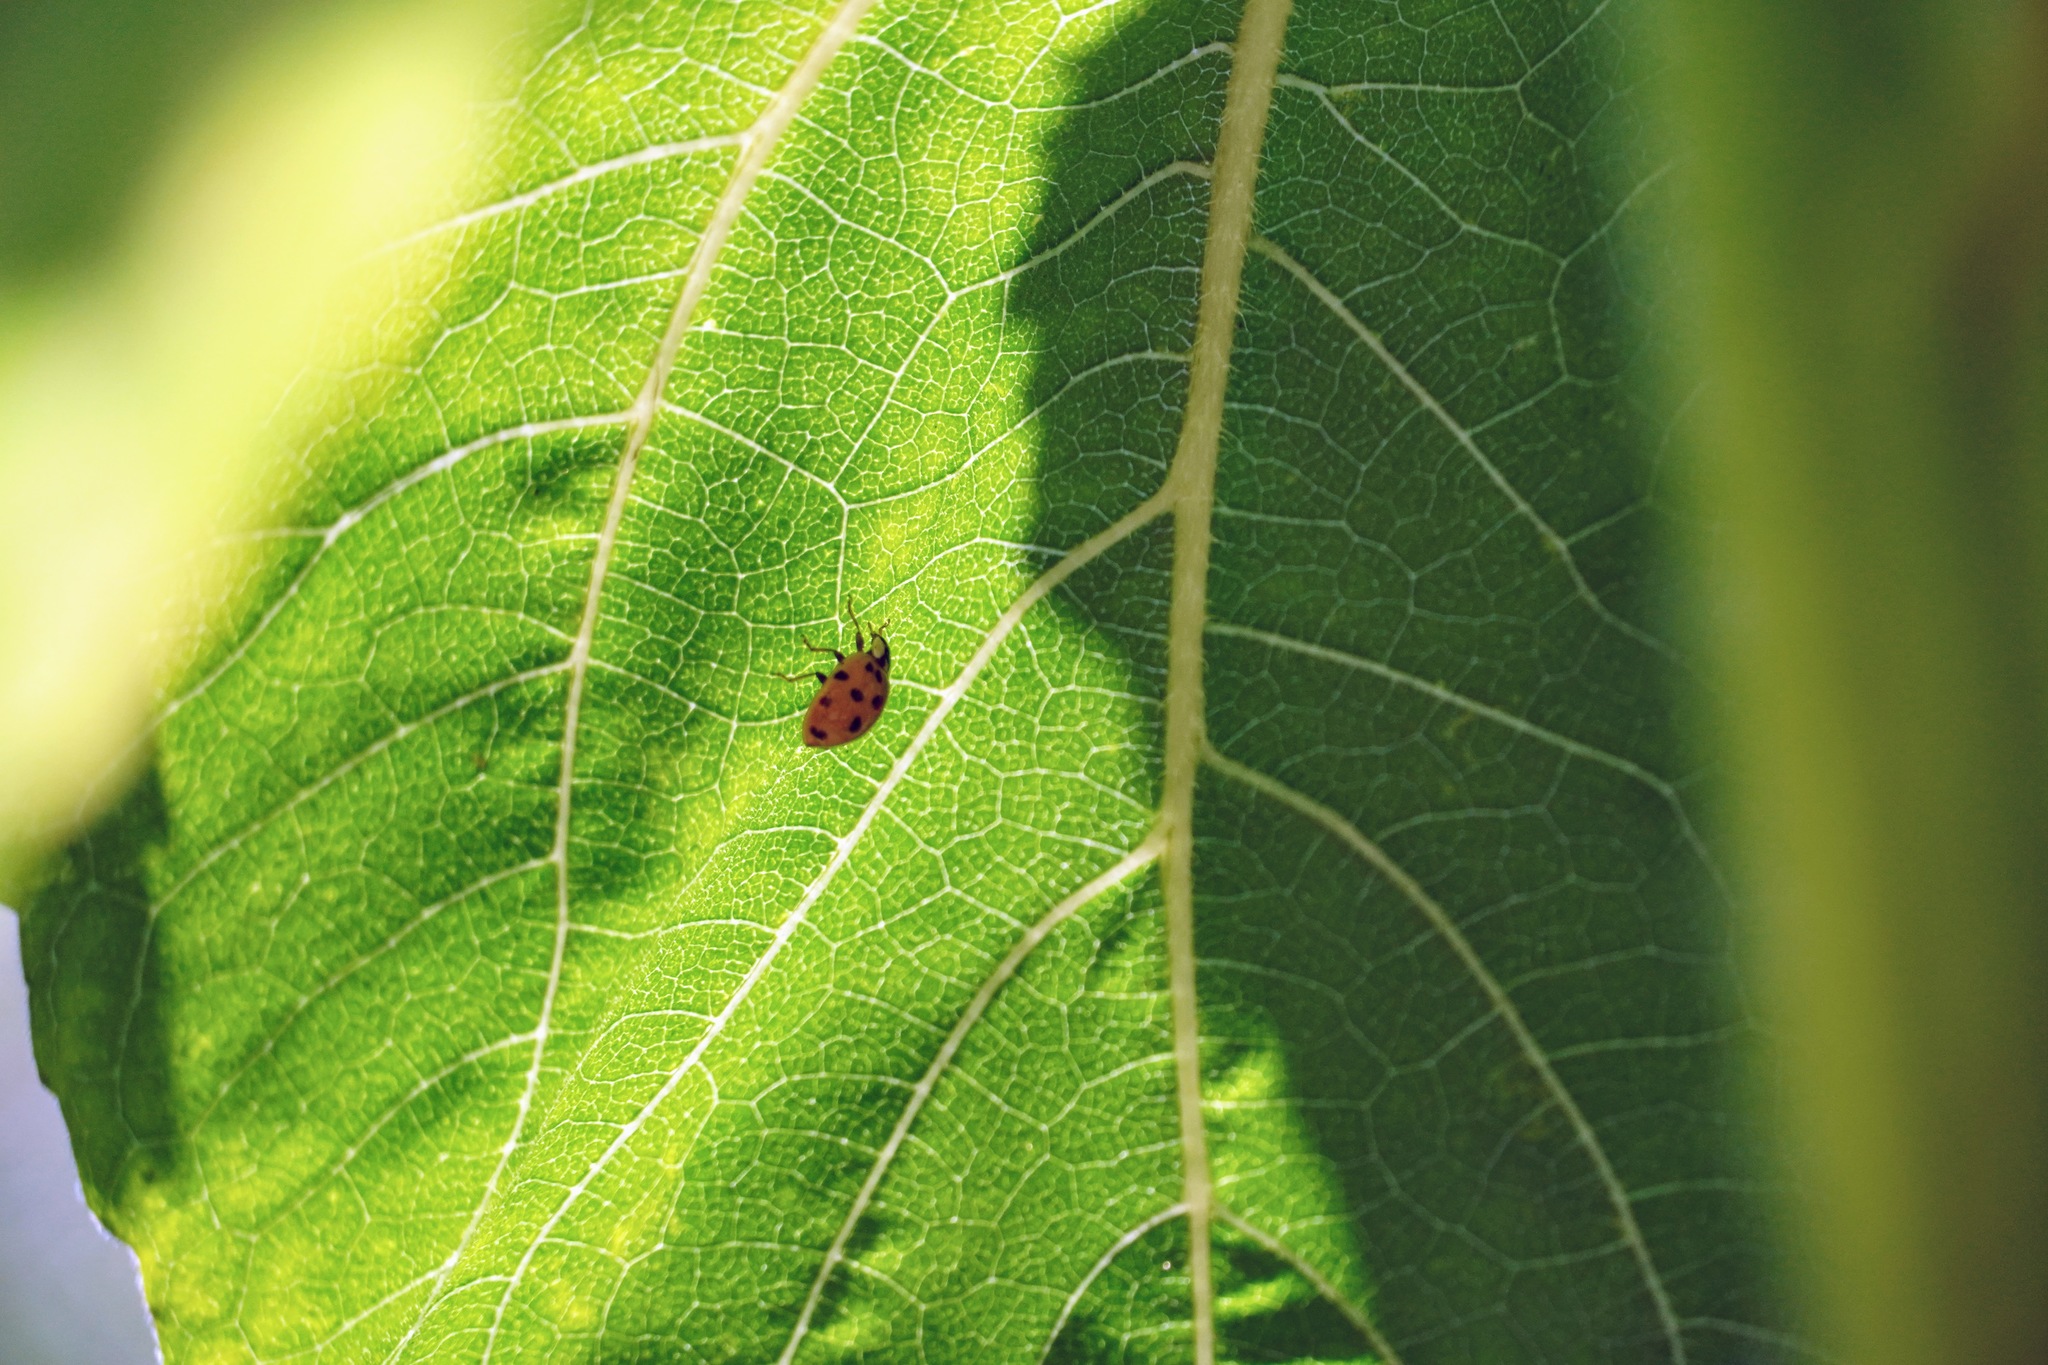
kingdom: Animalia
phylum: Arthropoda
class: Insecta
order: Coleoptera
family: Coccinellidae
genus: Harmonia
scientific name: Harmonia axyridis
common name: Harlequin ladybird
